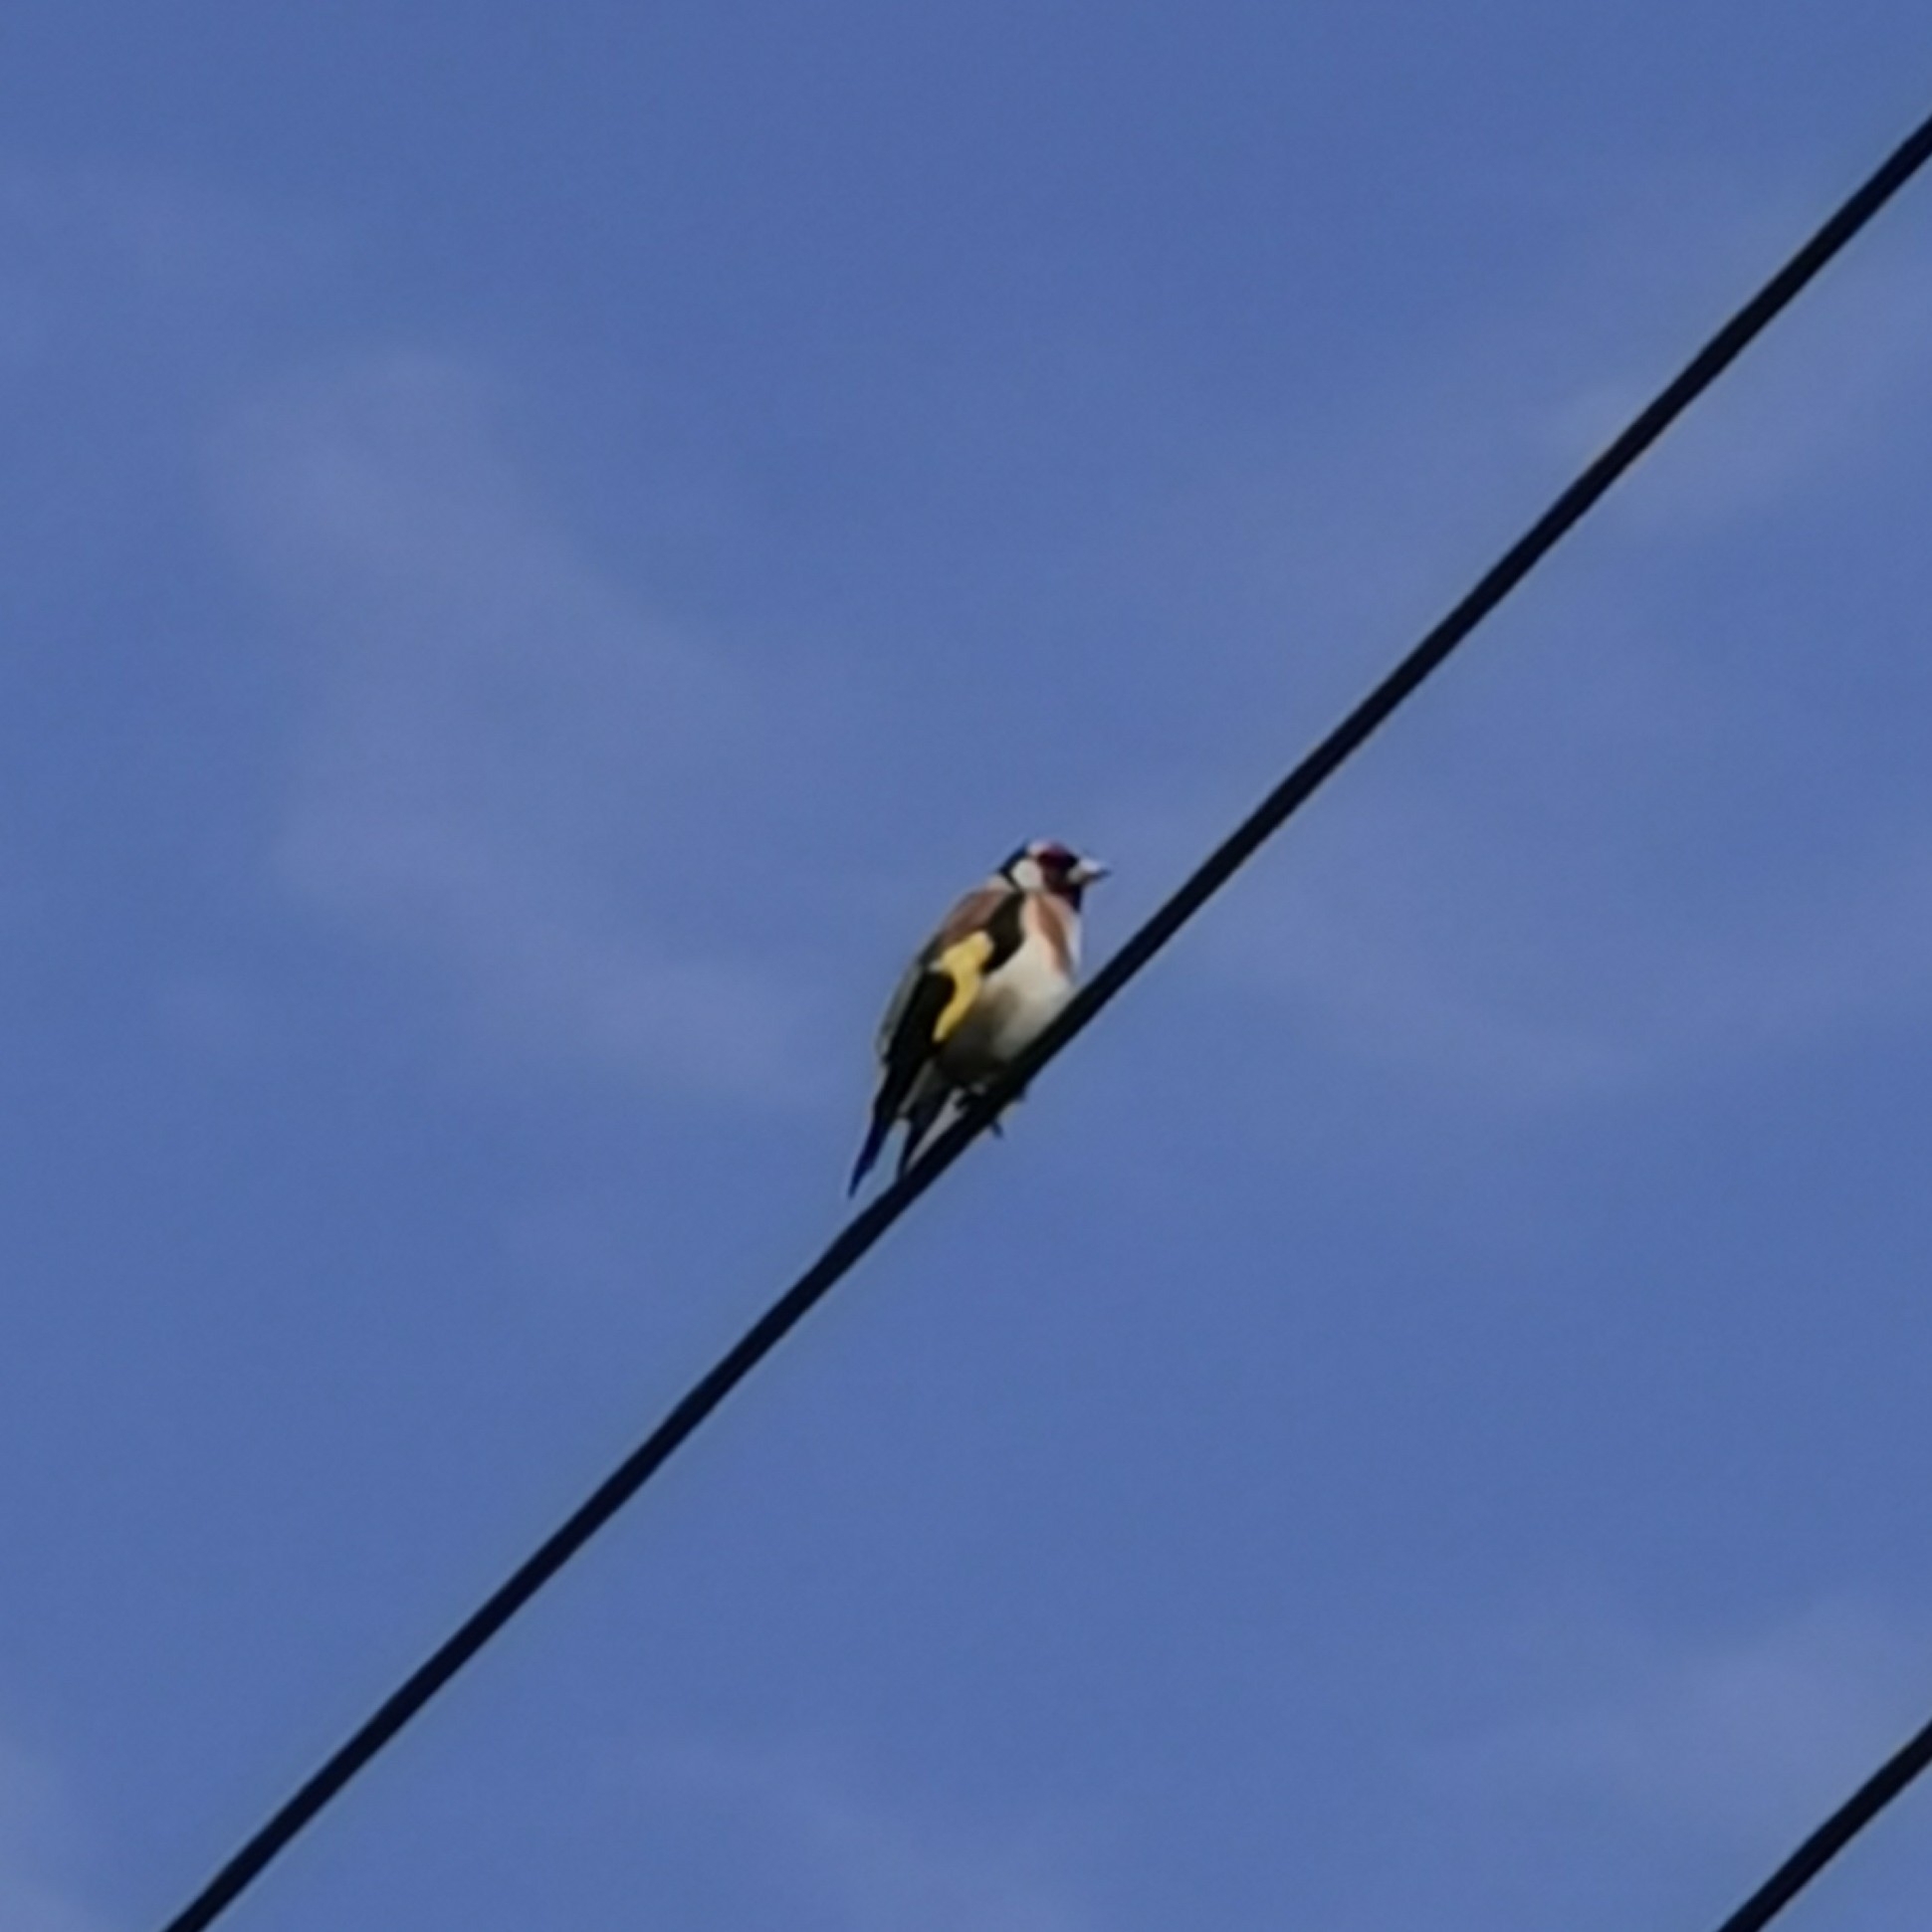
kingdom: Animalia
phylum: Chordata
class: Aves
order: Passeriformes
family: Fringillidae
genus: Carduelis
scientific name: Carduelis carduelis
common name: European goldfinch
